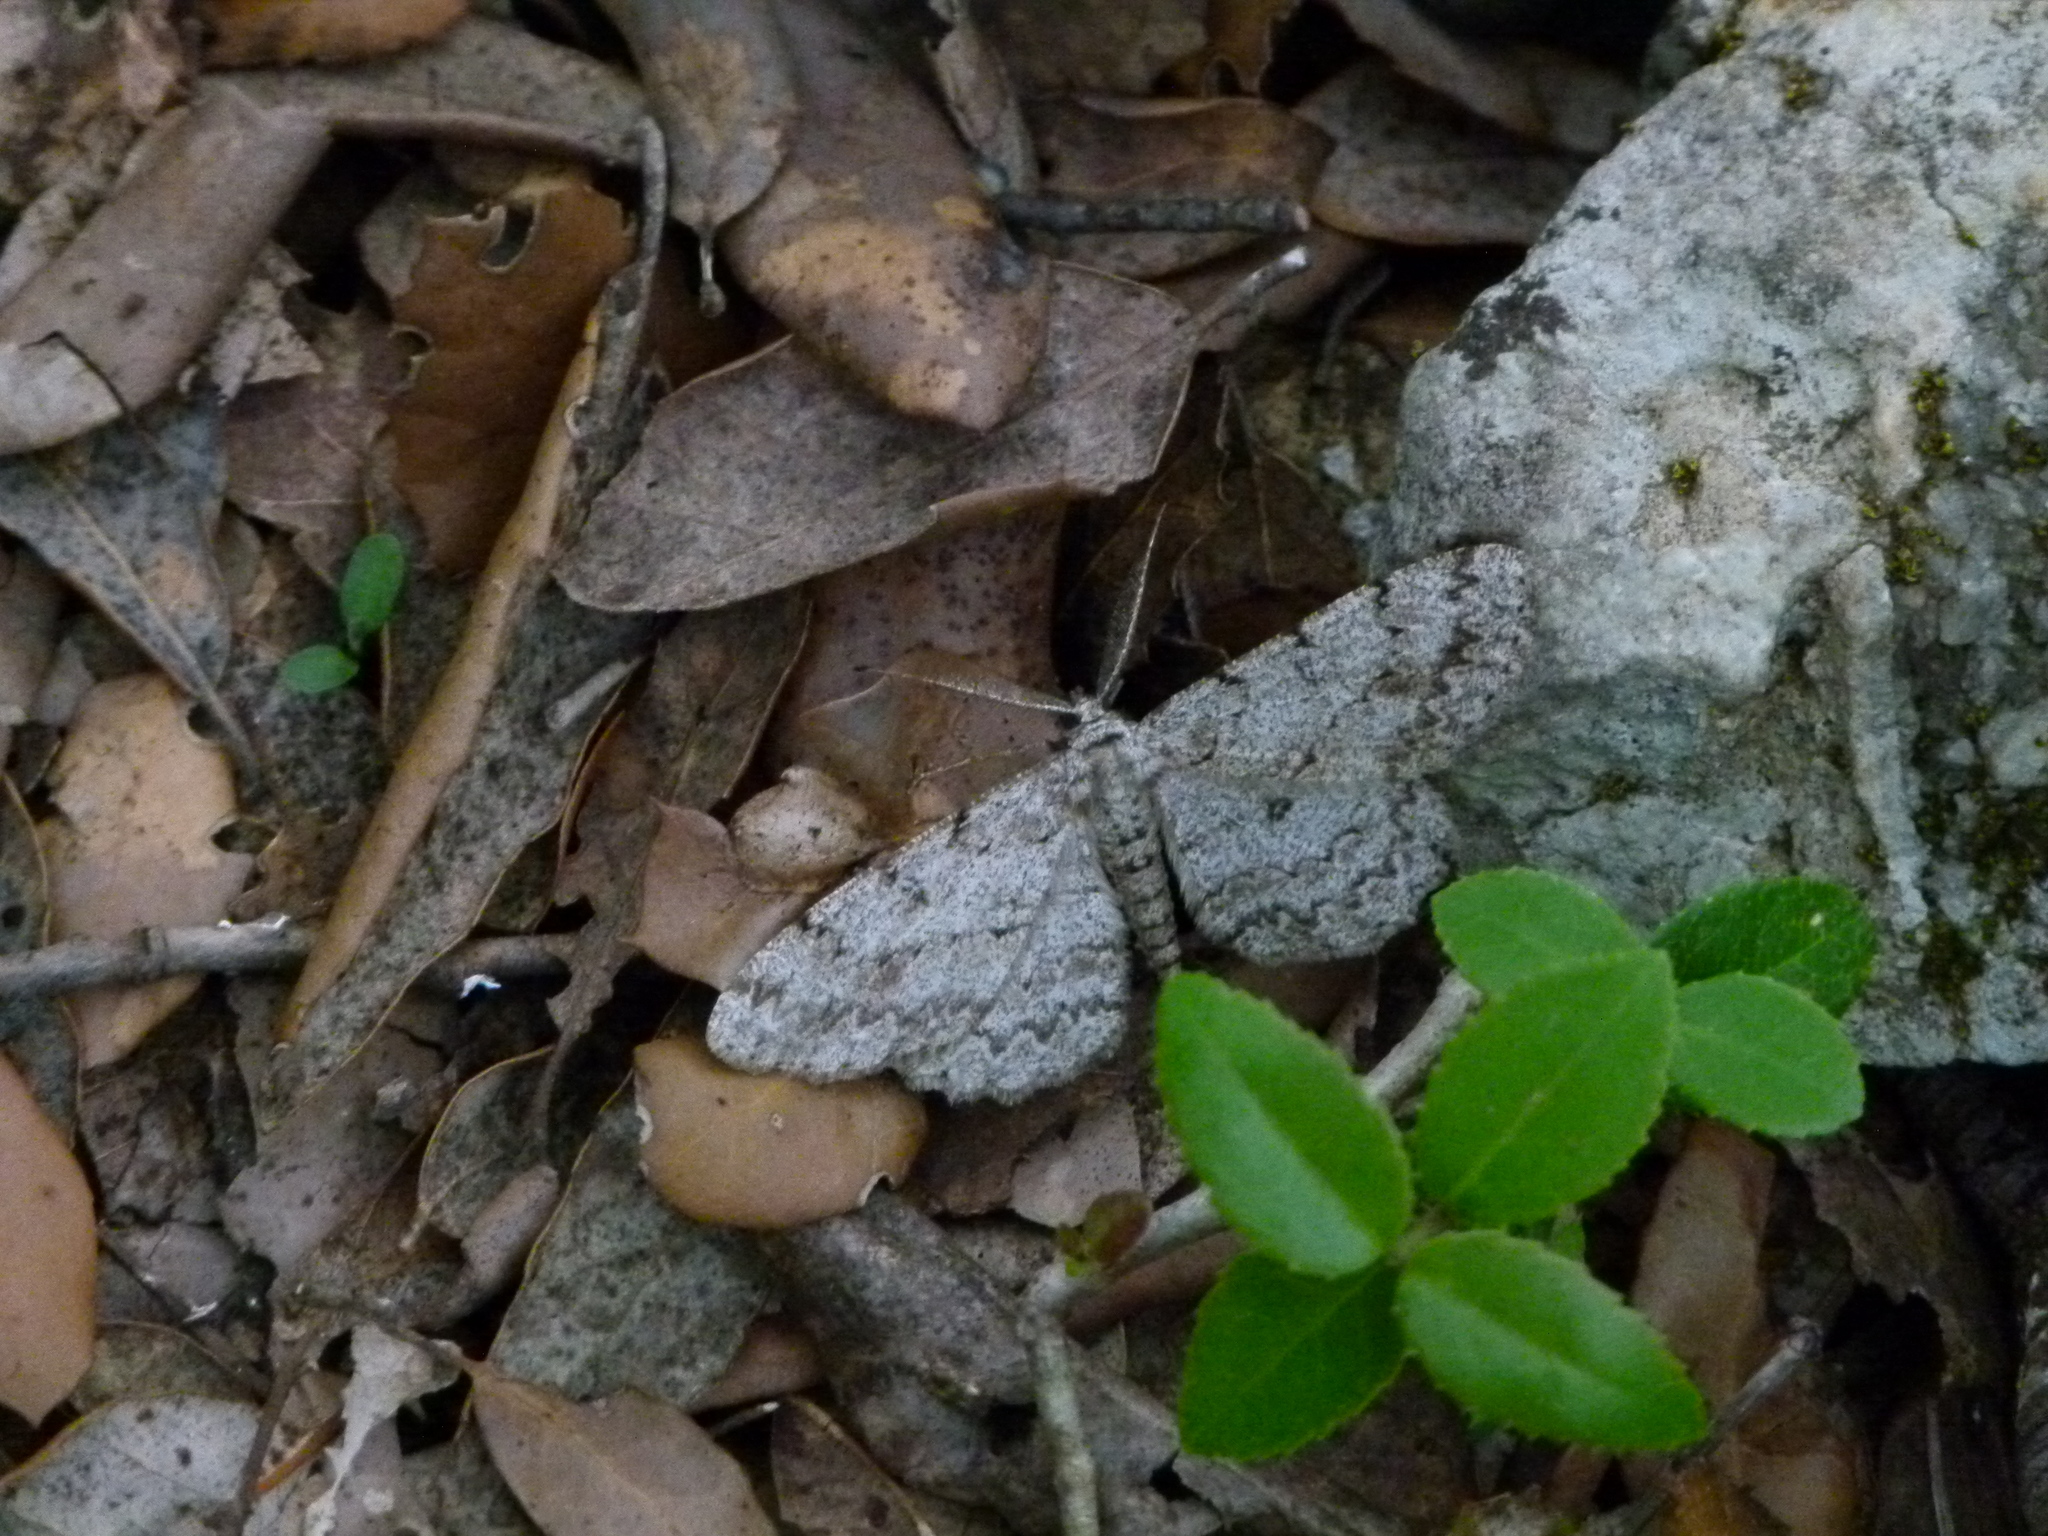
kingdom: Animalia
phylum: Arthropoda
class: Insecta
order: Lepidoptera
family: Geometridae
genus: Hypomecis
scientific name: Hypomecis punctinalis
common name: Pale oak beauty
